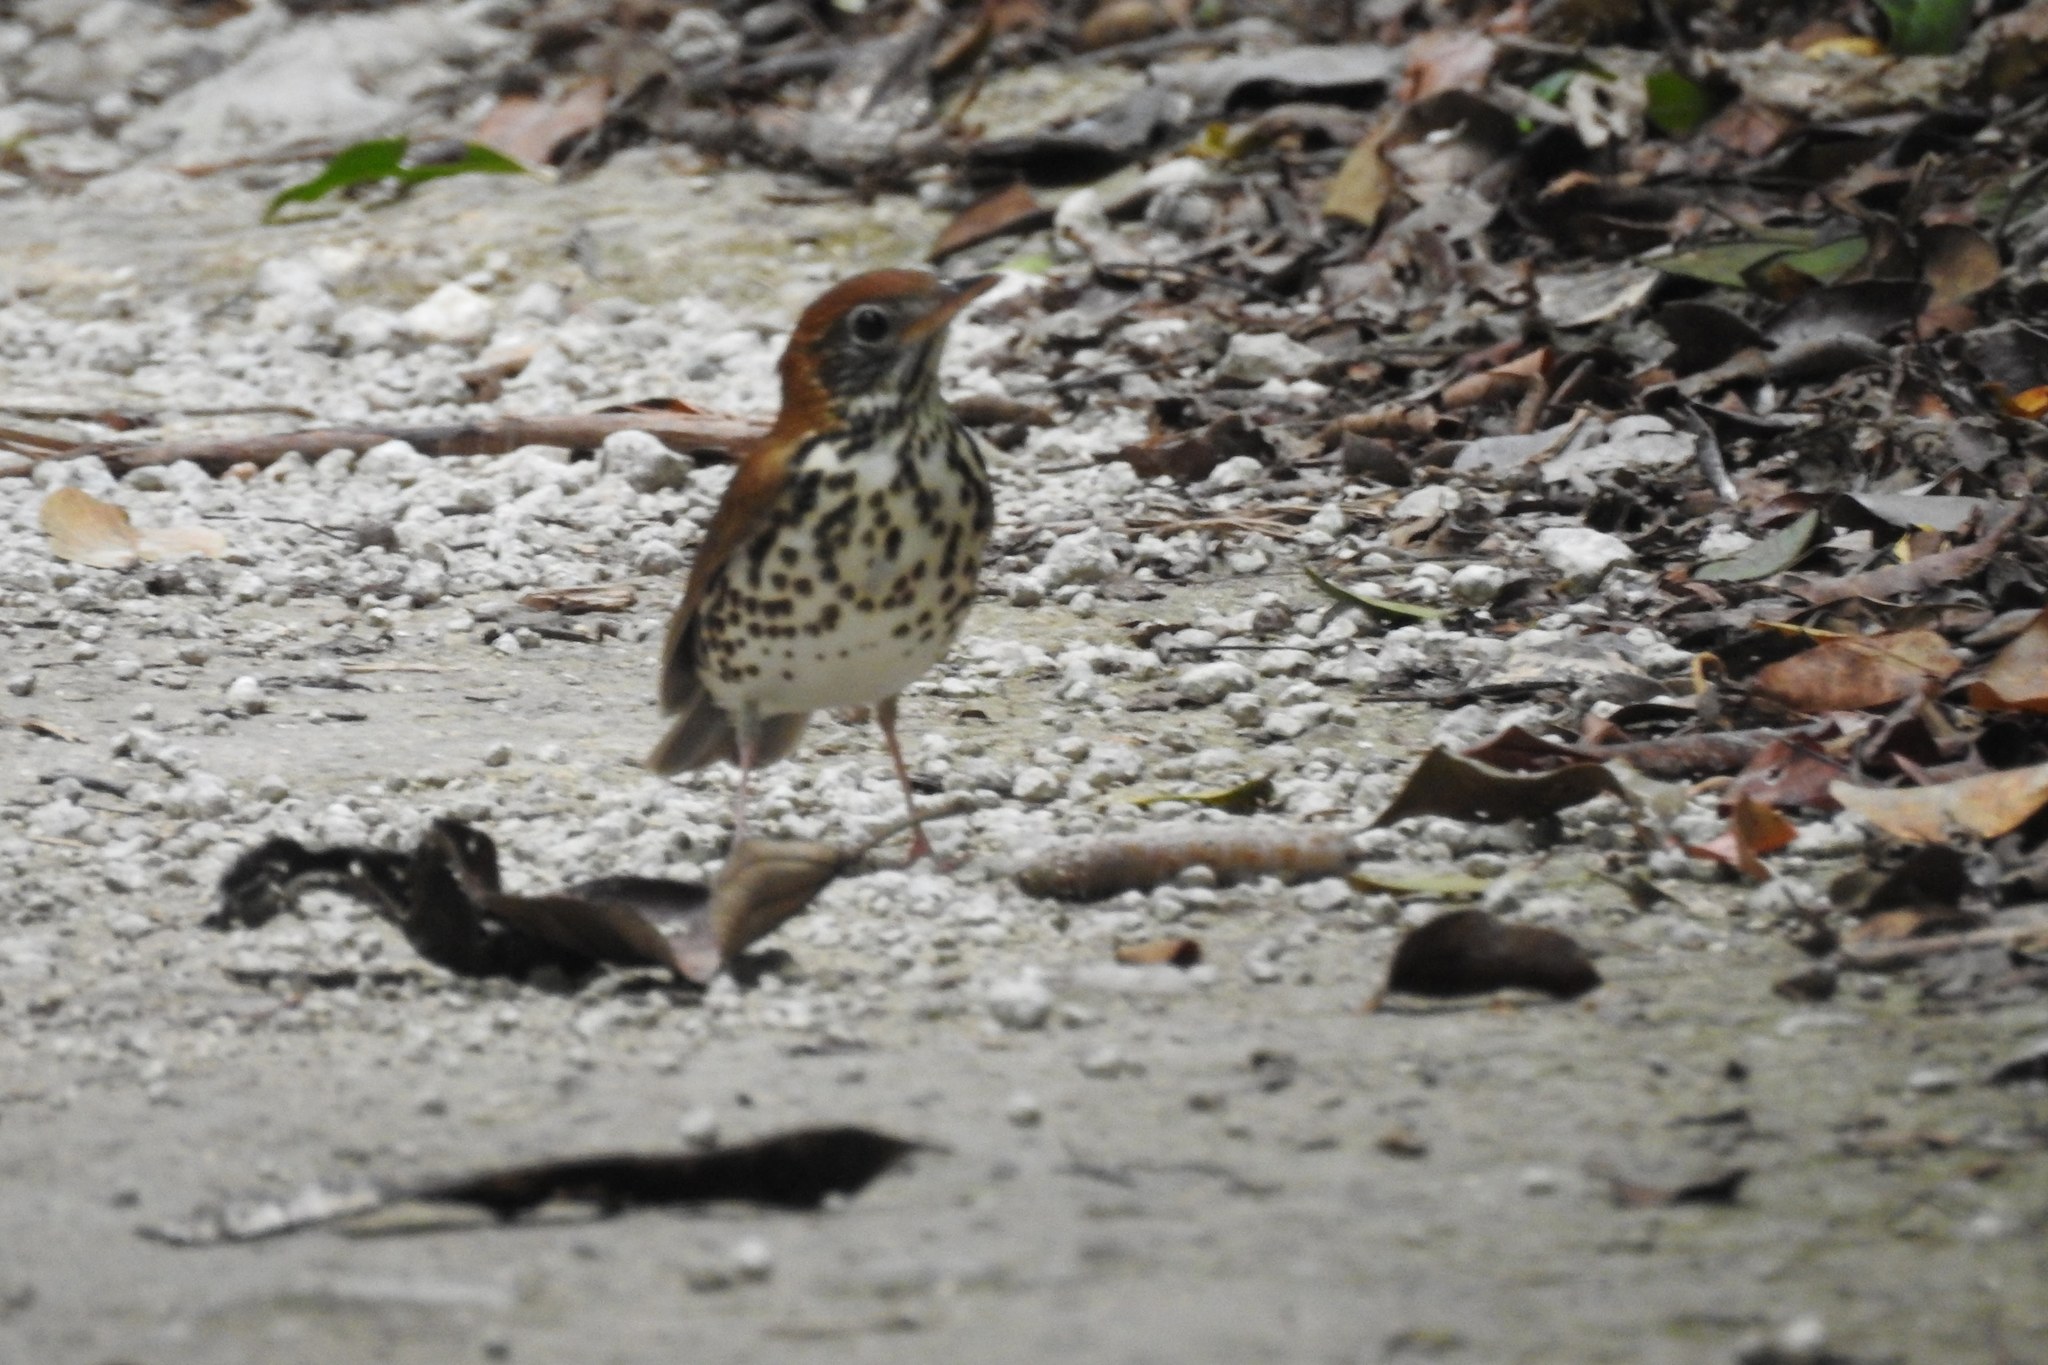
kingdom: Animalia
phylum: Chordata
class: Aves
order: Passeriformes
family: Turdidae
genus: Hylocichla
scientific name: Hylocichla mustelina
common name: Wood thrush
